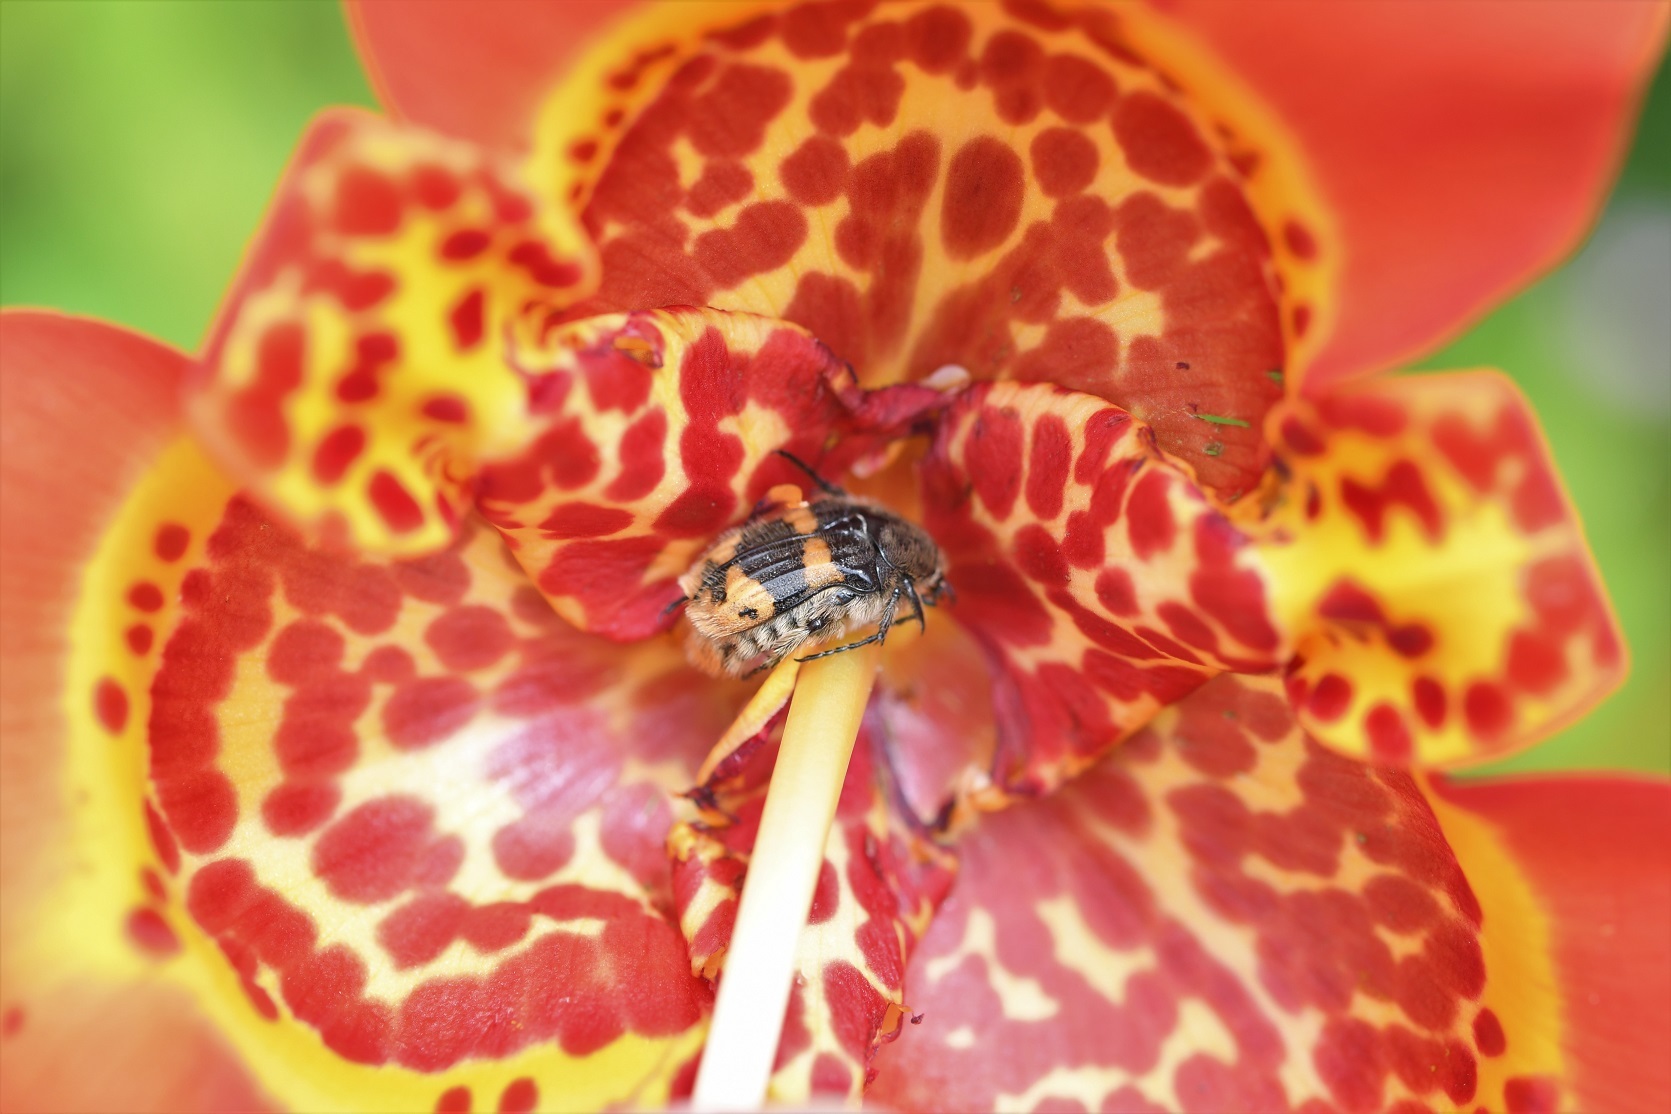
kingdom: Animalia
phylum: Arthropoda
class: Insecta
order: Coleoptera
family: Scarabaeidae
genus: Euphoria
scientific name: Euphoria basalis
